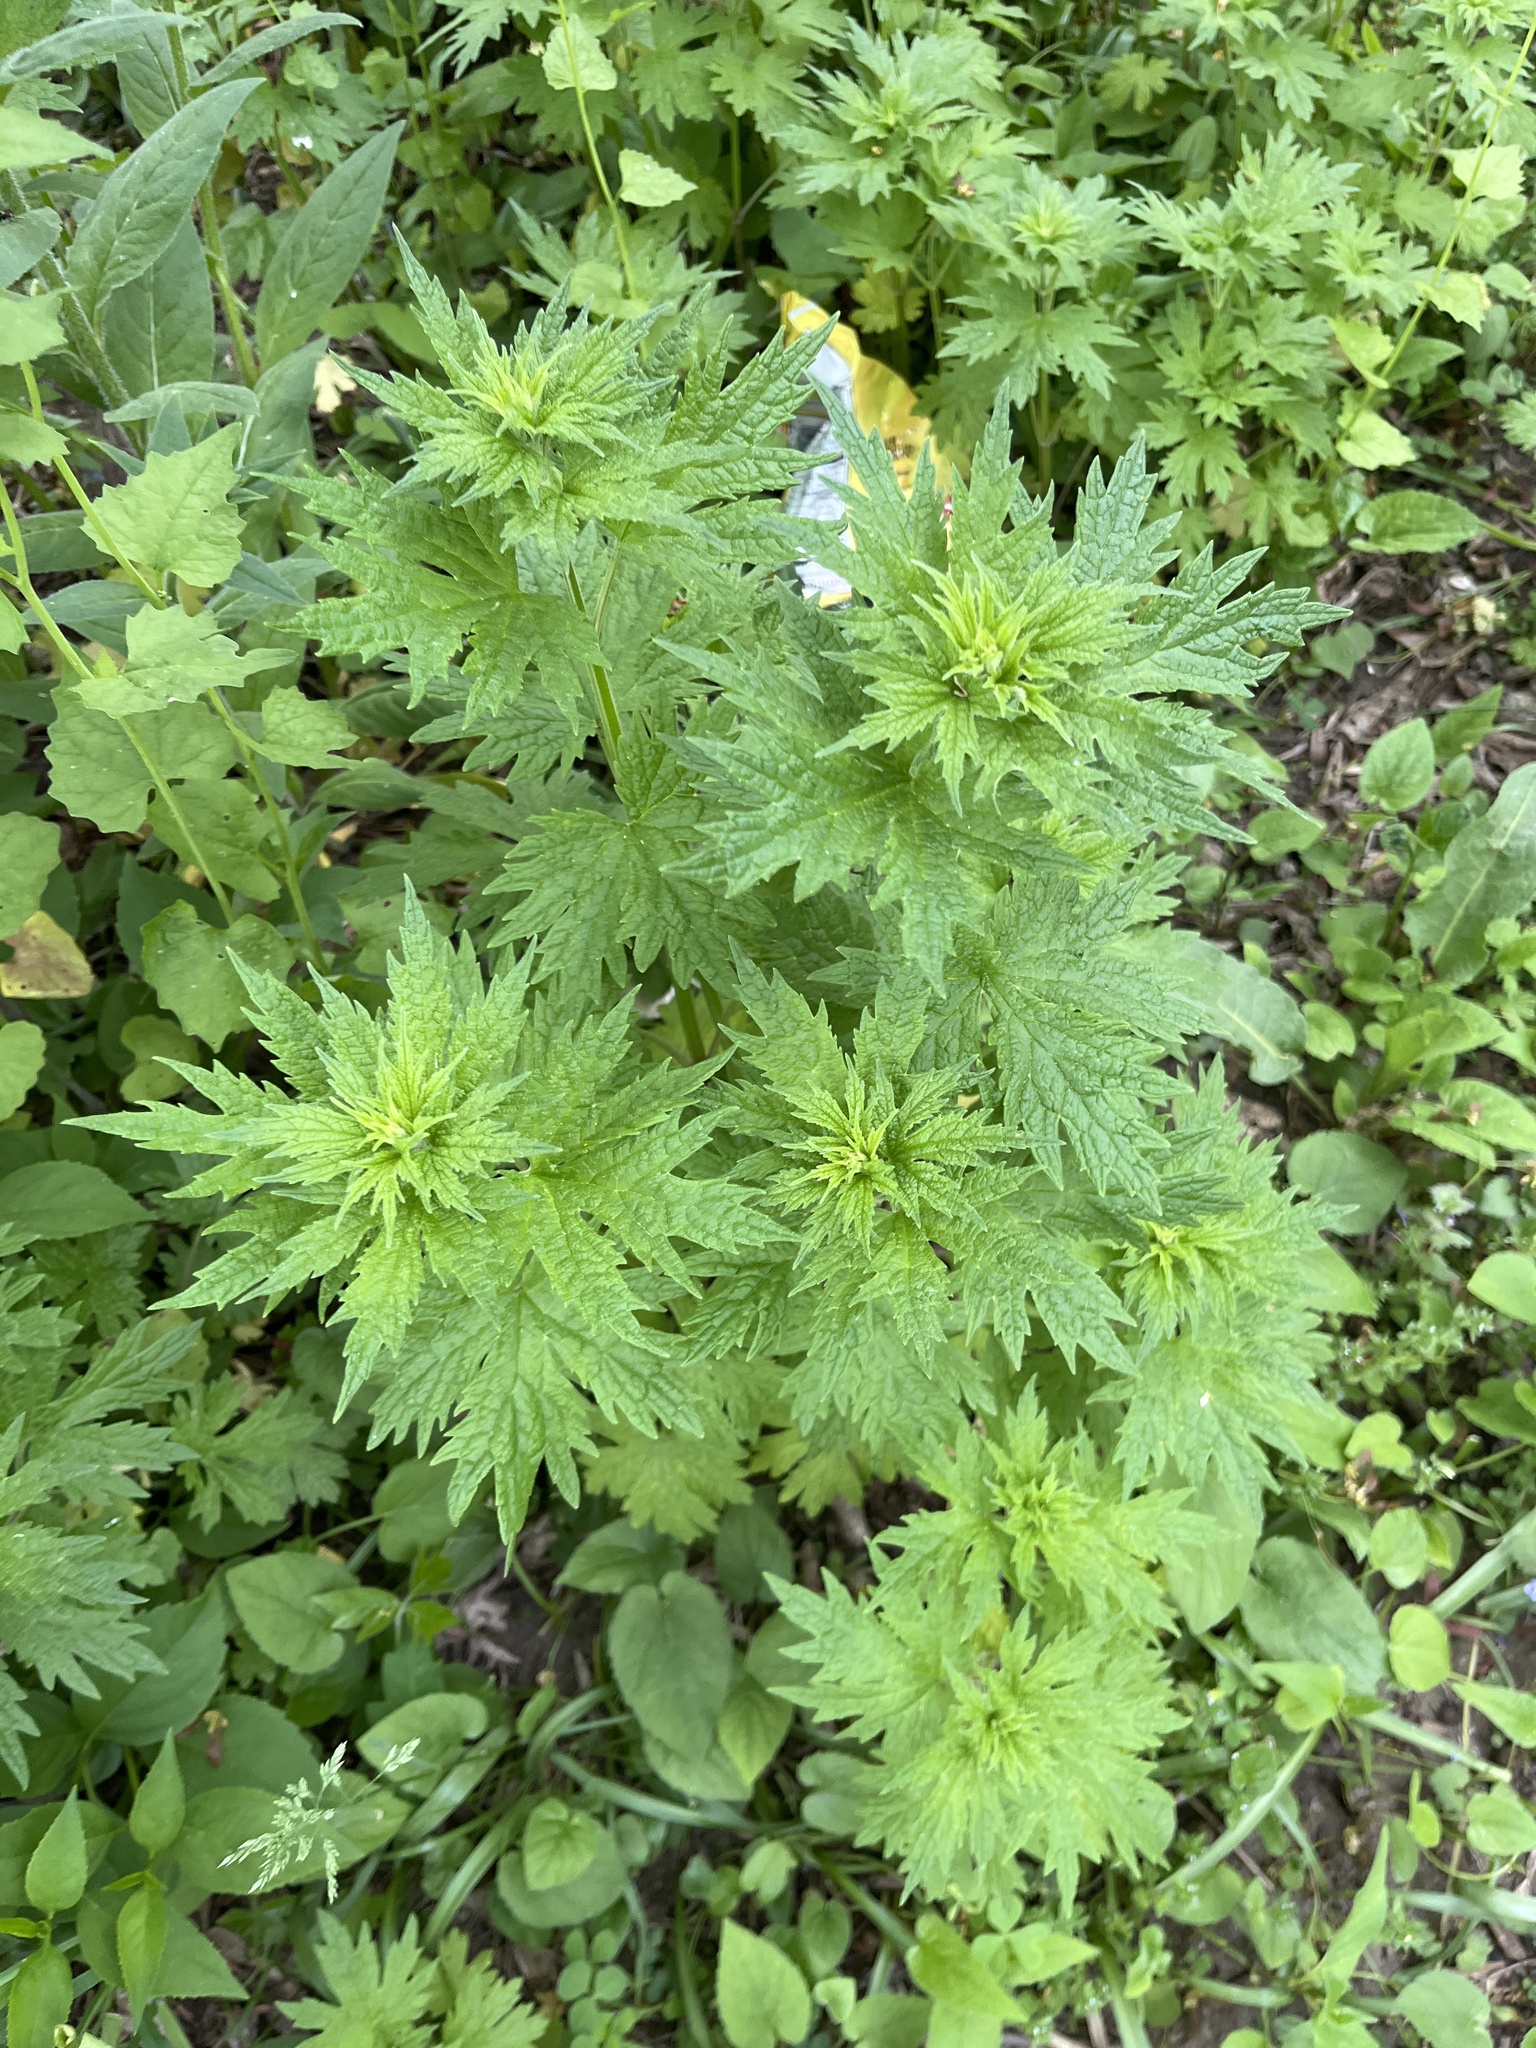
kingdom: Plantae
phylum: Tracheophyta
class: Magnoliopsida
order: Lamiales
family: Lamiaceae
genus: Leonurus
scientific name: Leonurus cardiaca
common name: Motherwort
